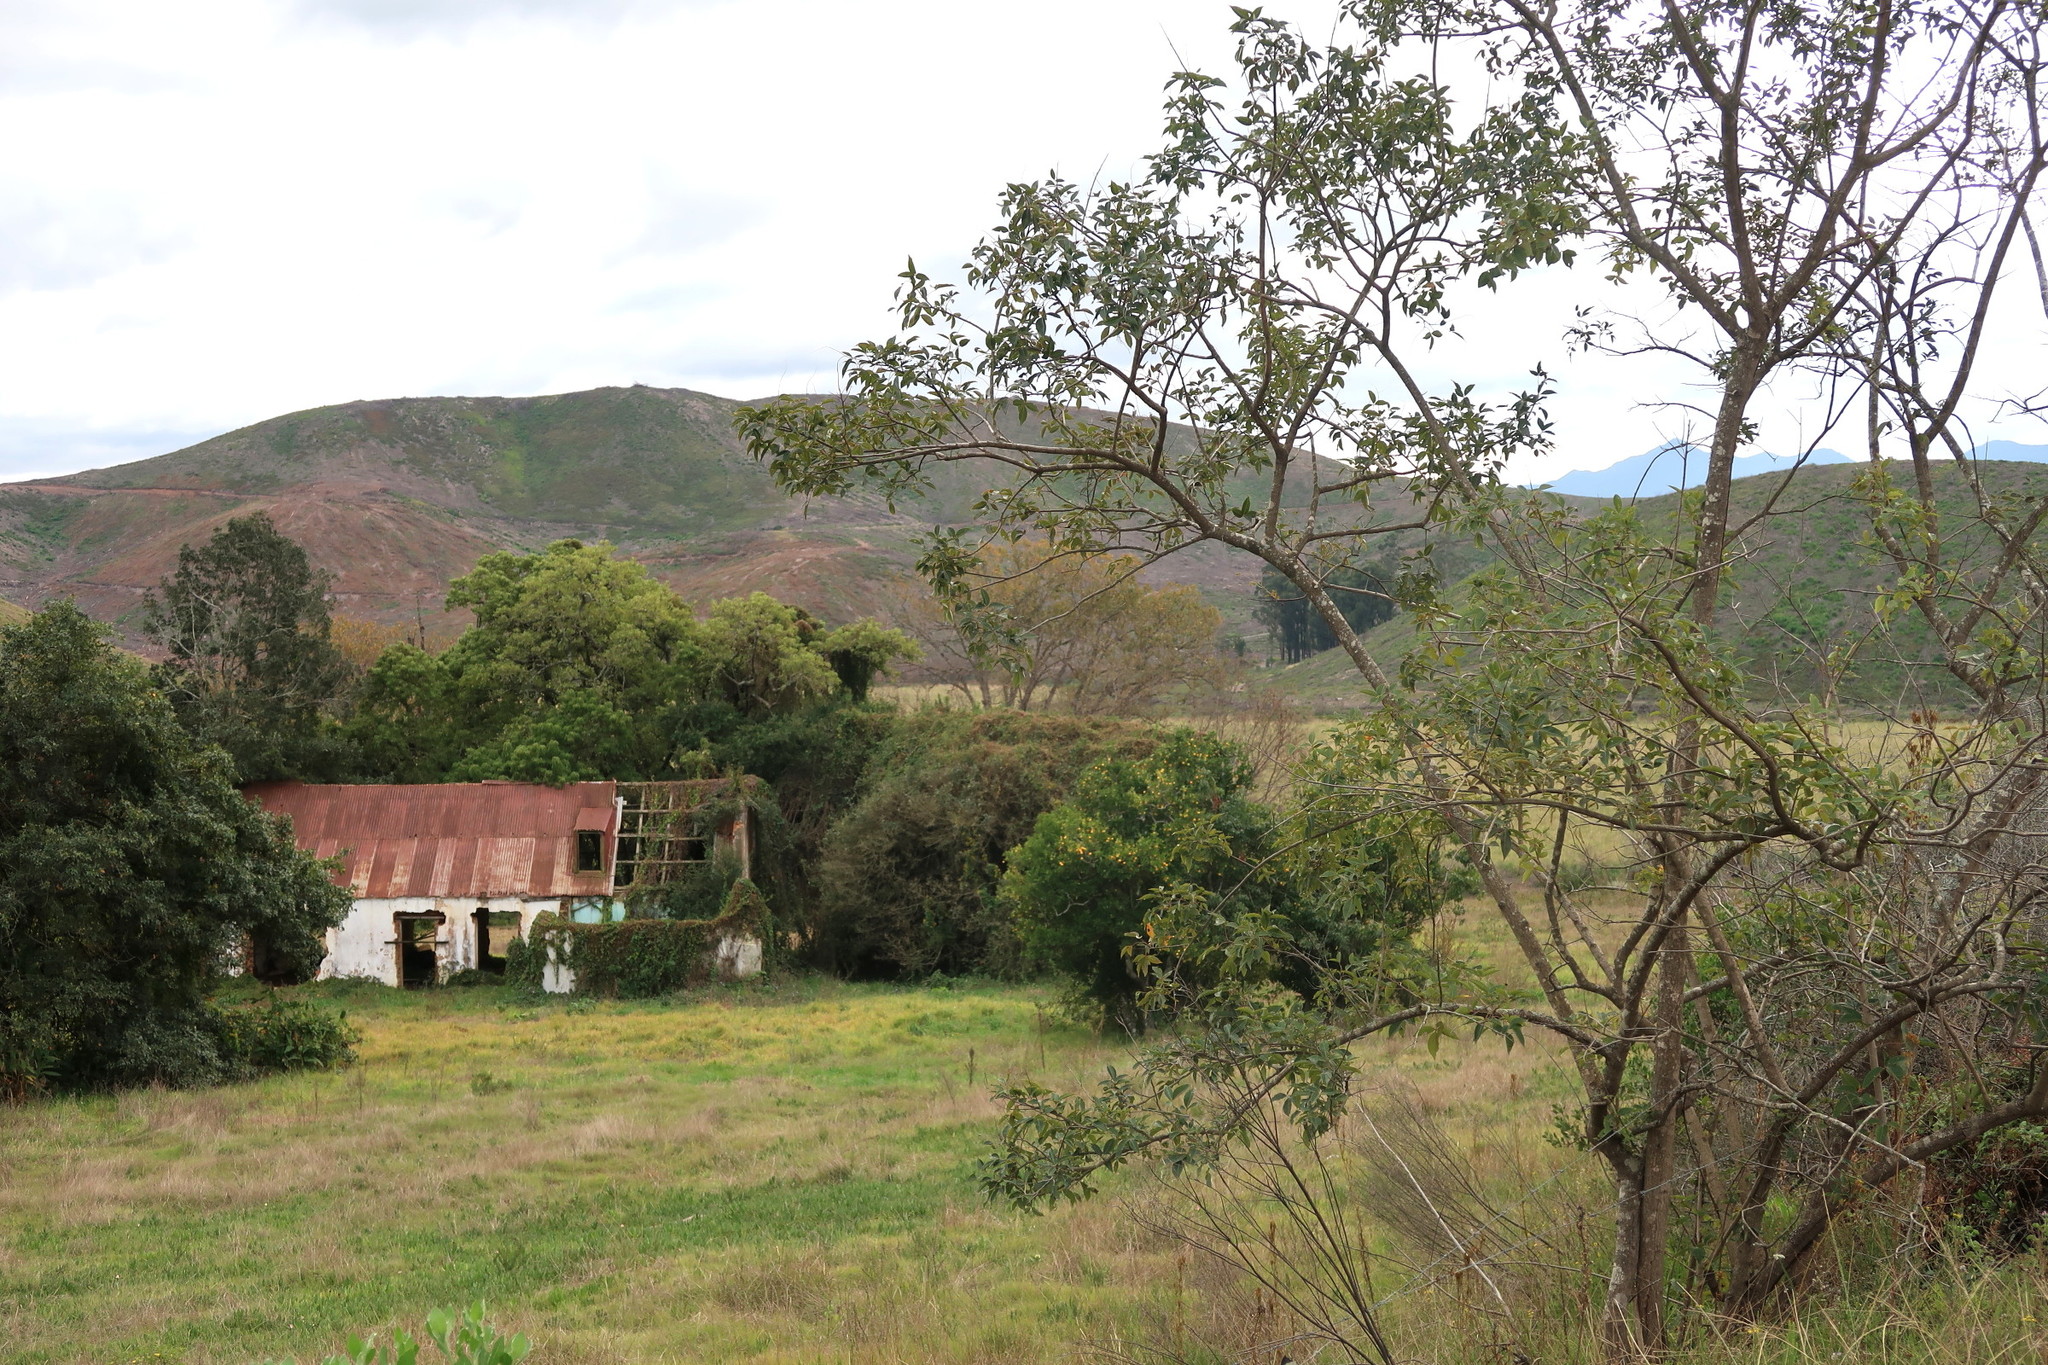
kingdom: Plantae
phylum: Tracheophyta
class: Magnoliopsida
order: Sapindales
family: Anacardiaceae
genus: Searsia
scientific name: Searsia chirindensis
